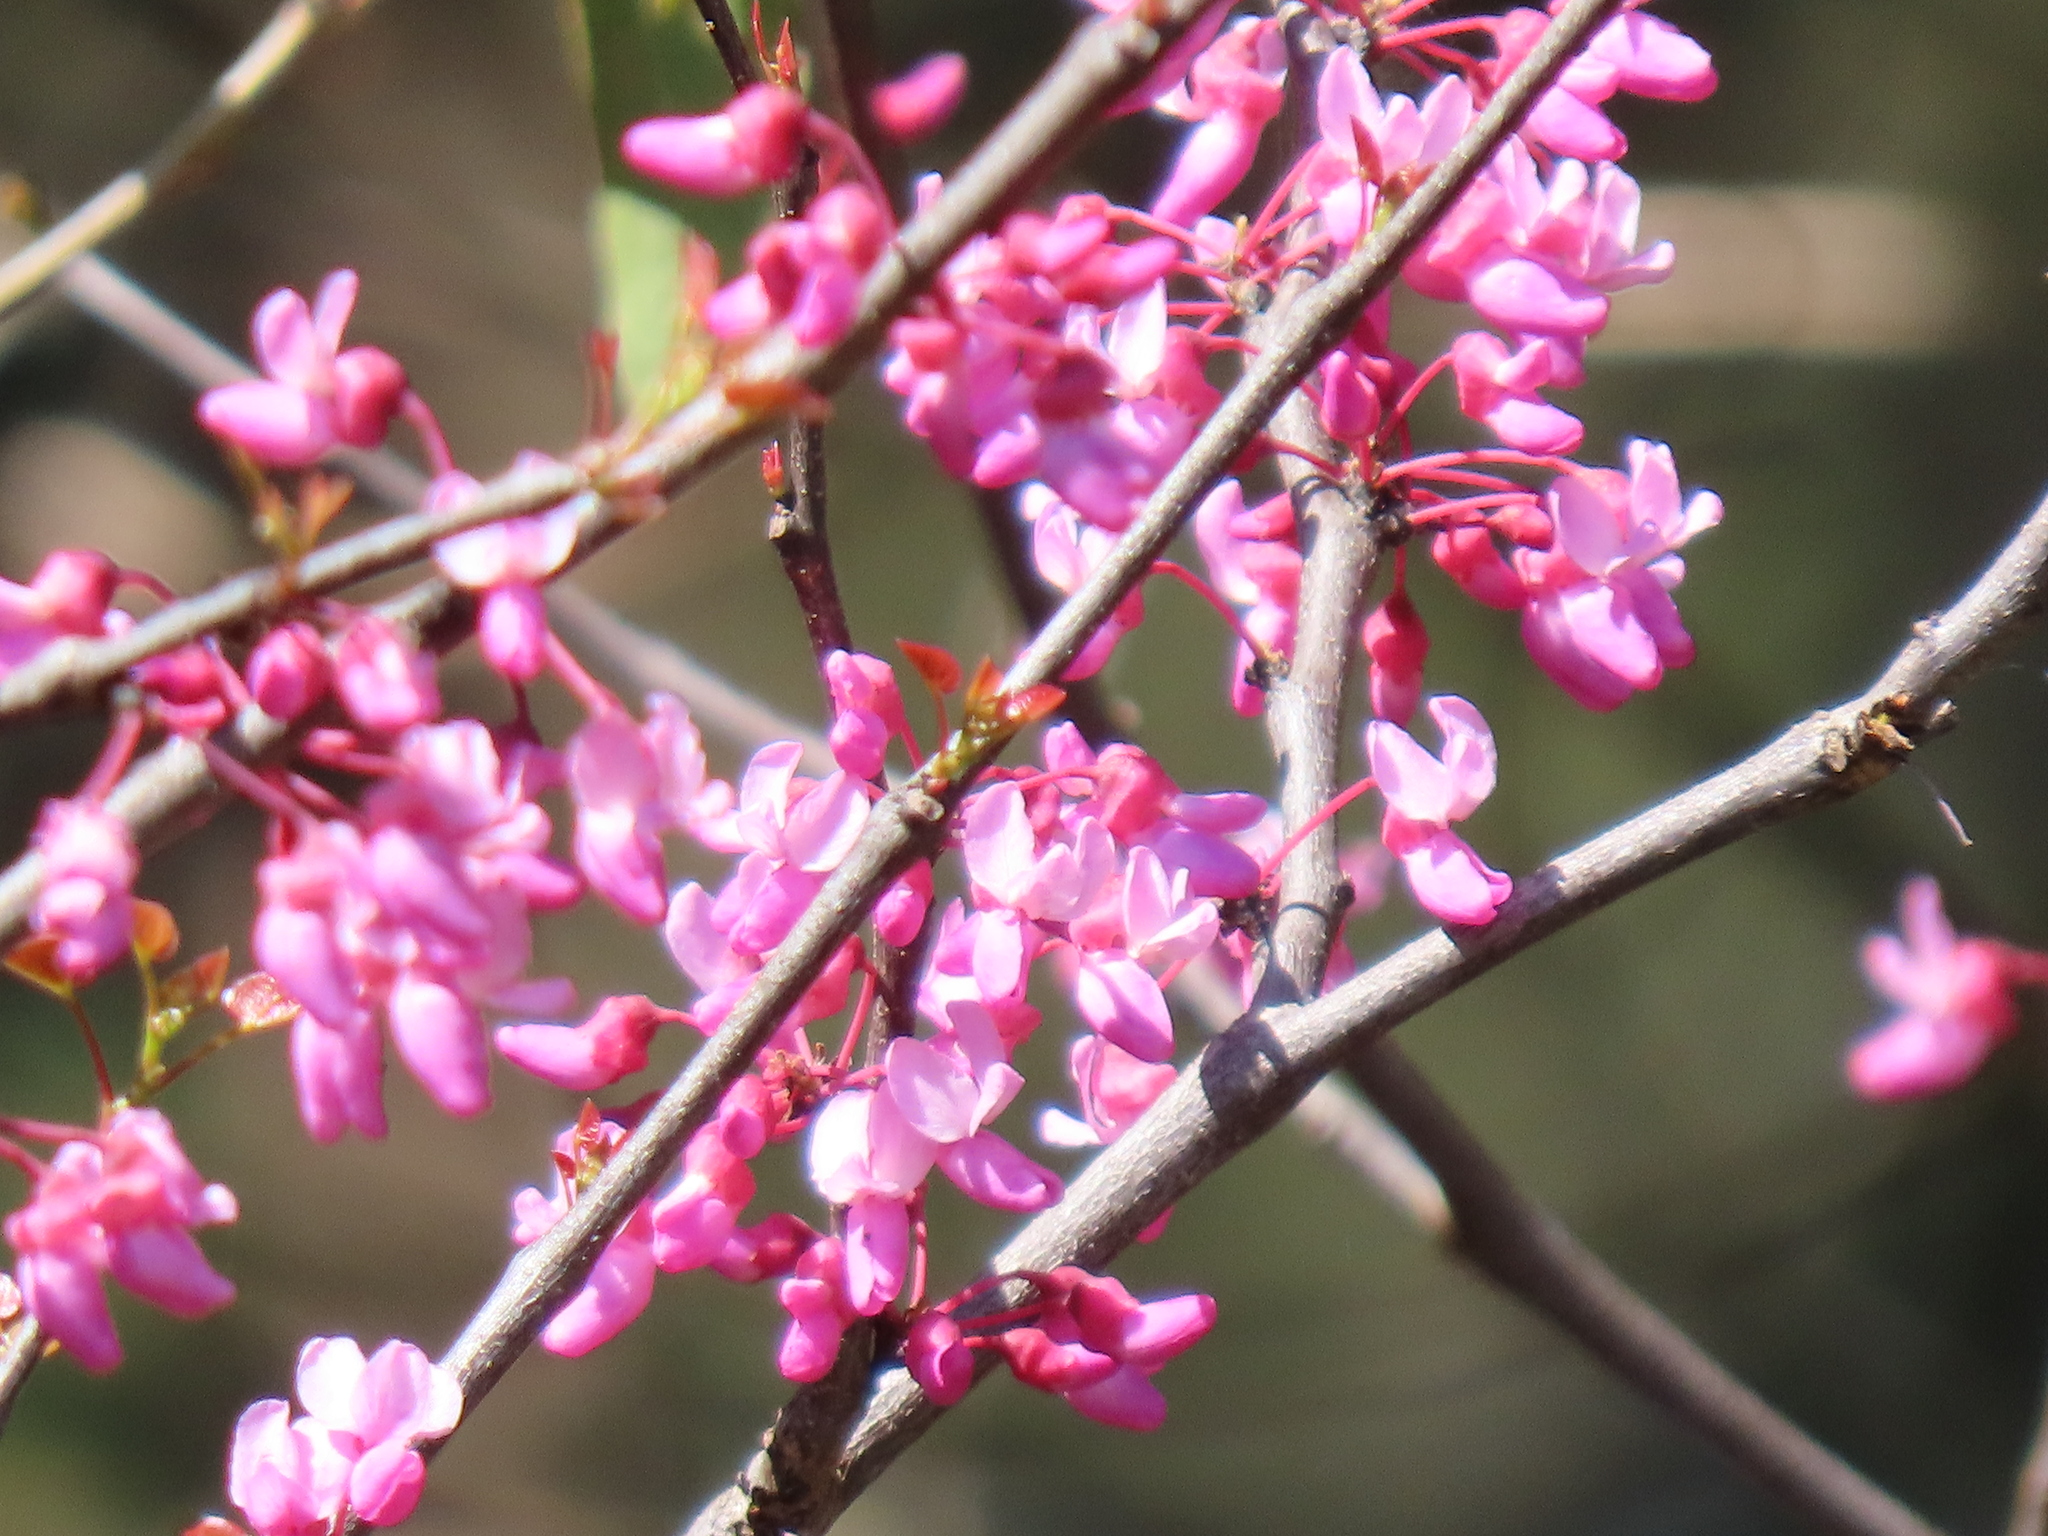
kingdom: Plantae
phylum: Tracheophyta
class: Magnoliopsida
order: Fabales
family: Fabaceae
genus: Cercis
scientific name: Cercis canadensis
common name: Eastern redbud
